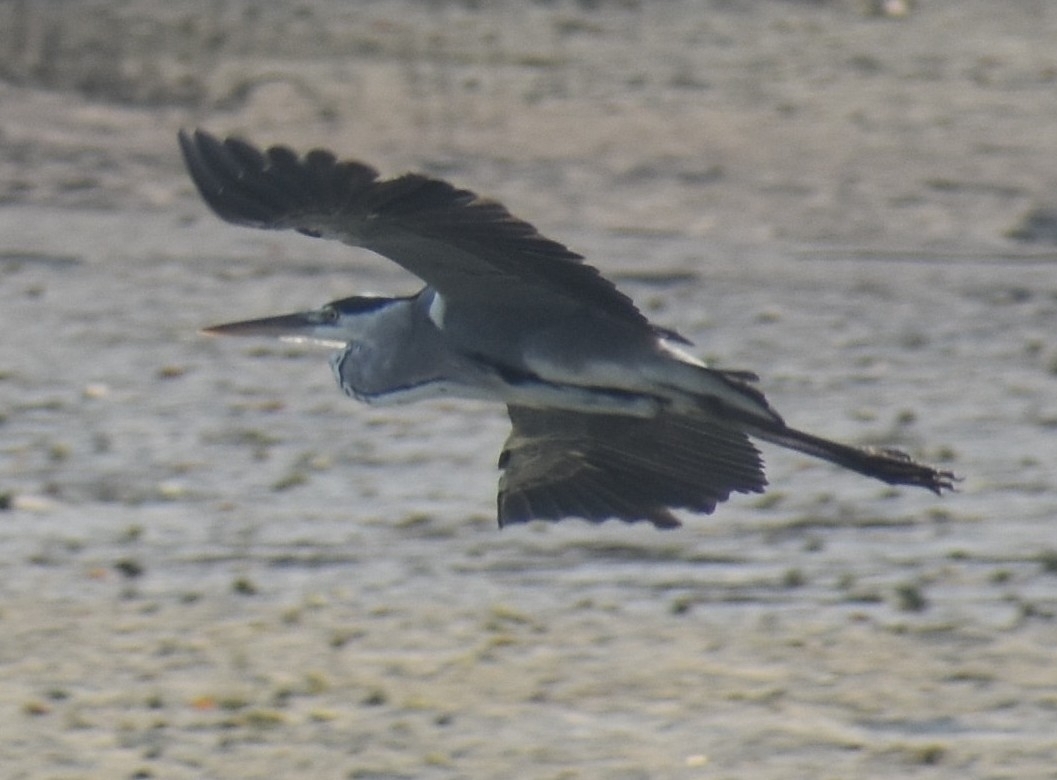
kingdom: Animalia
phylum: Chordata
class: Aves
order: Pelecaniformes
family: Ardeidae
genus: Ardea
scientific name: Ardea cinerea
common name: Grey heron
